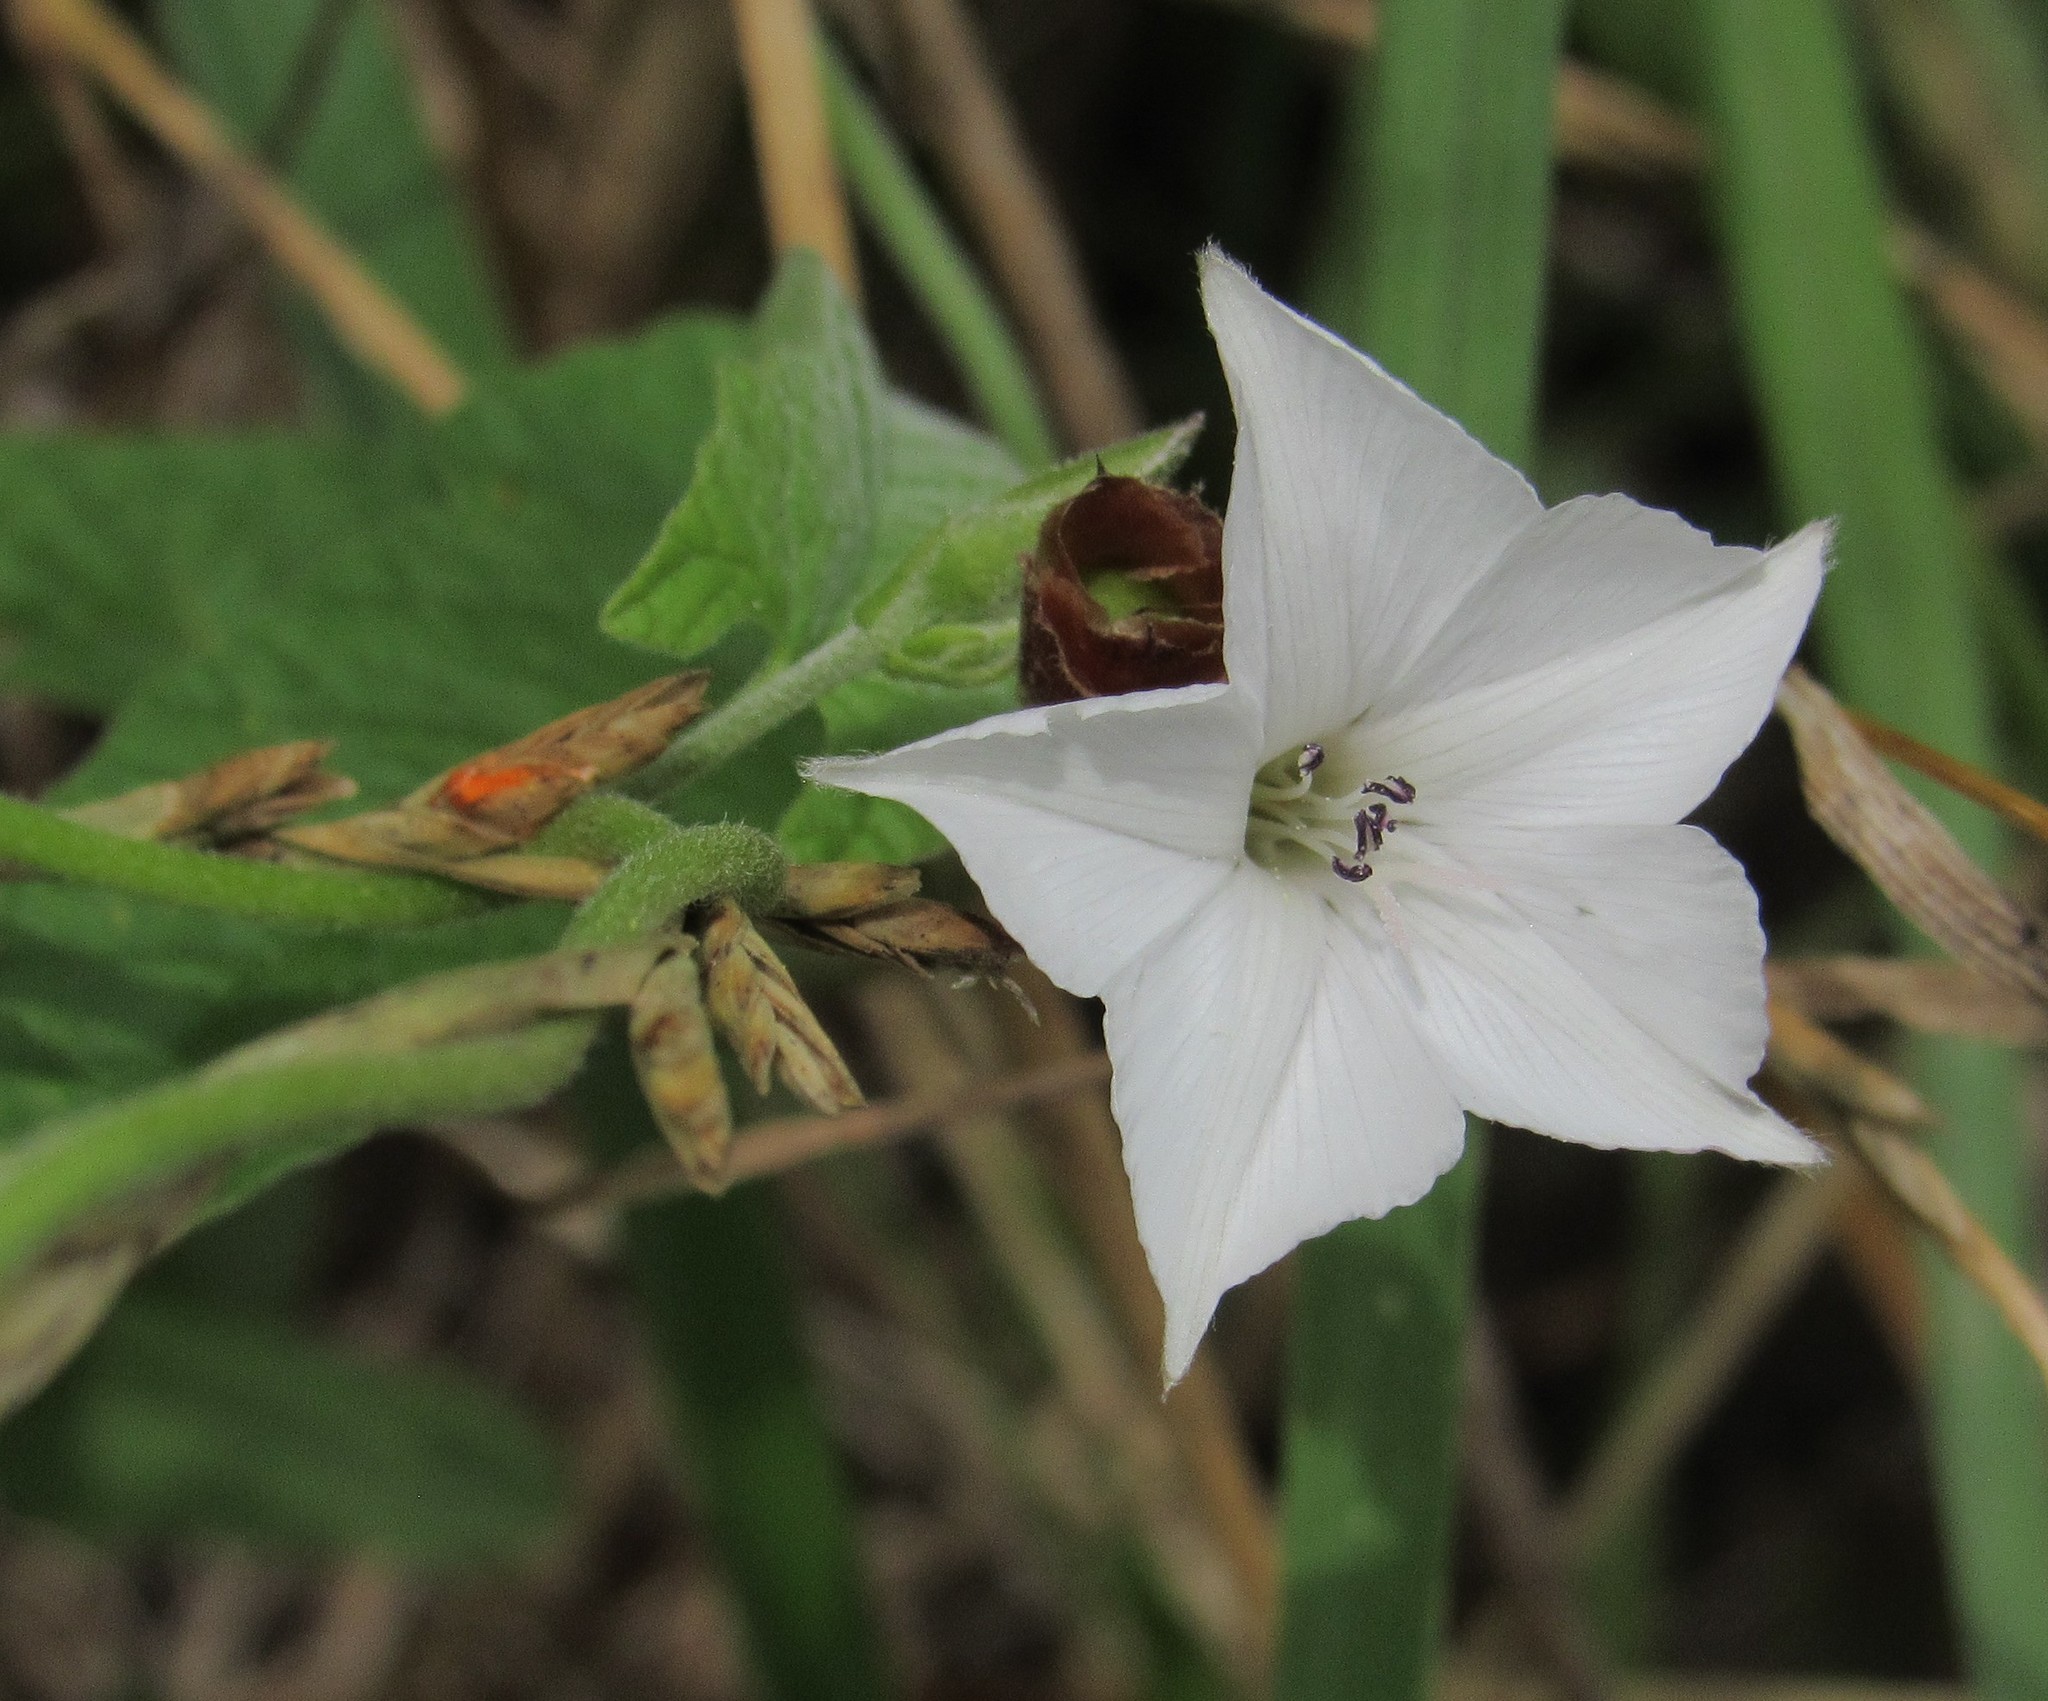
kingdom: Plantae
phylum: Tracheophyta
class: Magnoliopsida
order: Solanales
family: Convolvulaceae
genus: Convolvulus
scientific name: Convolvulus crenatifolius
